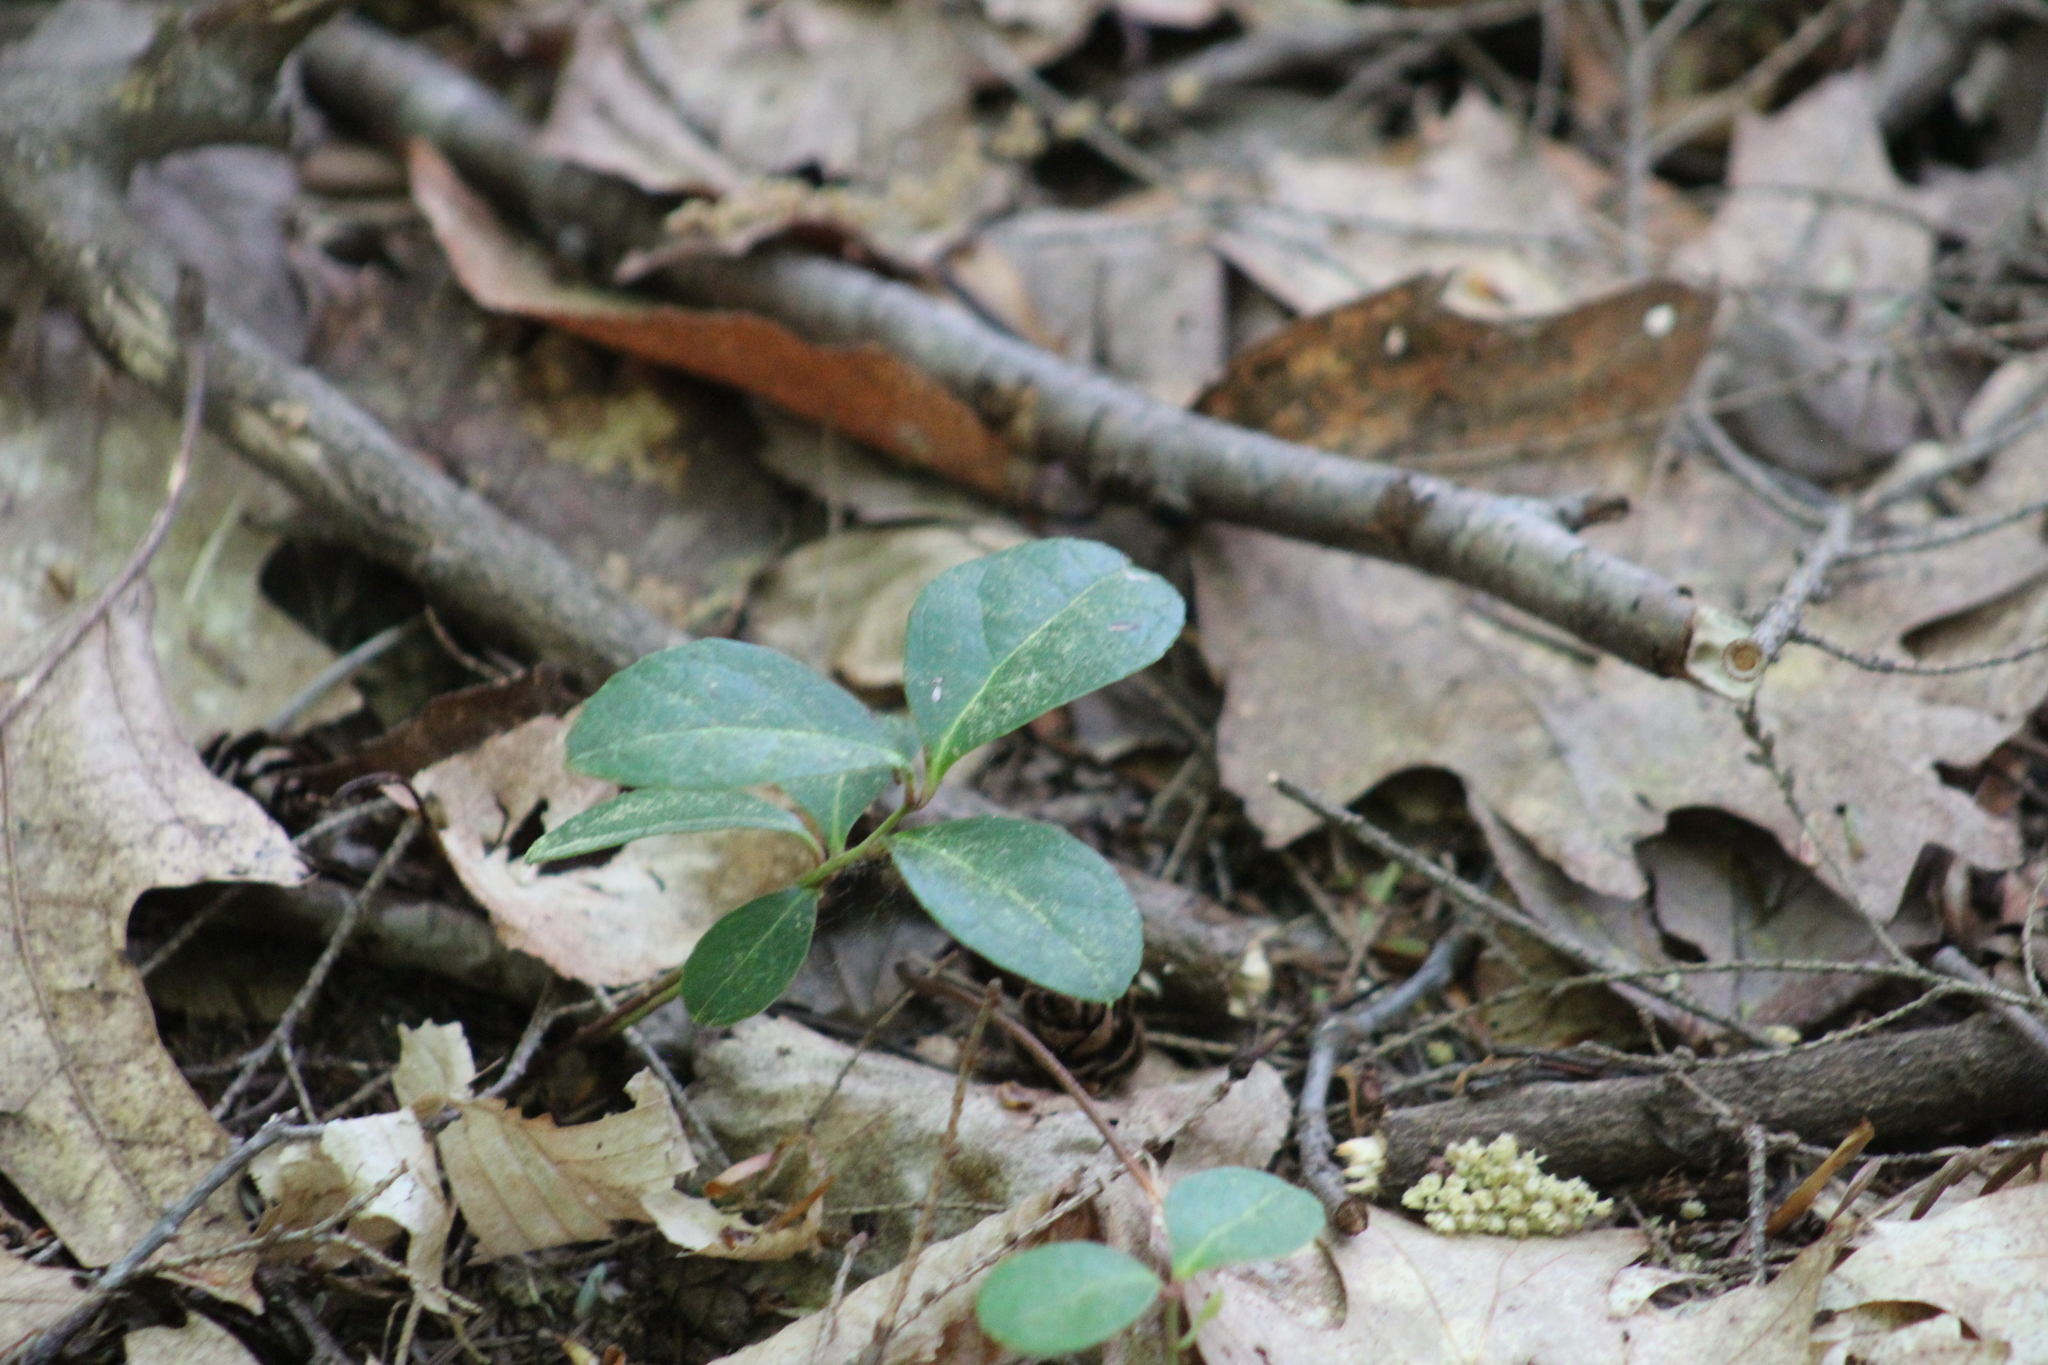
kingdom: Plantae
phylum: Tracheophyta
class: Magnoliopsida
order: Ericales
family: Ericaceae
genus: Gaultheria
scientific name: Gaultheria procumbens
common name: Checkerberry
